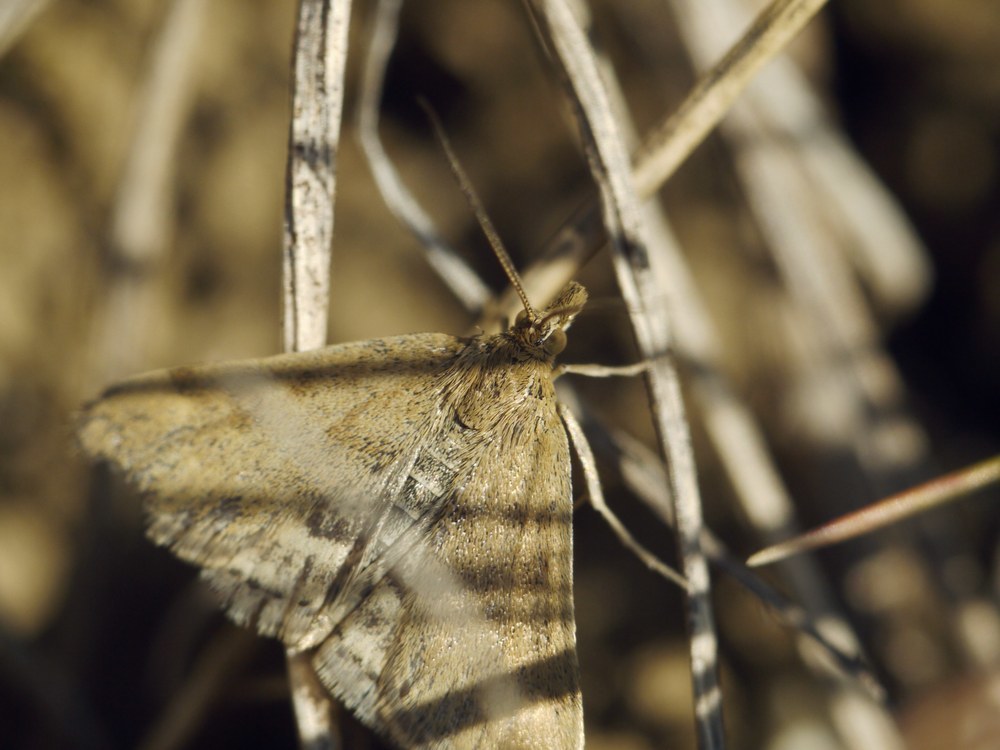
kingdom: Animalia
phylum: Arthropoda
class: Insecta
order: Lepidoptera
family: Crambidae
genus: Pyrausta
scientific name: Pyrausta despicata
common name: Straw-barred pearl
